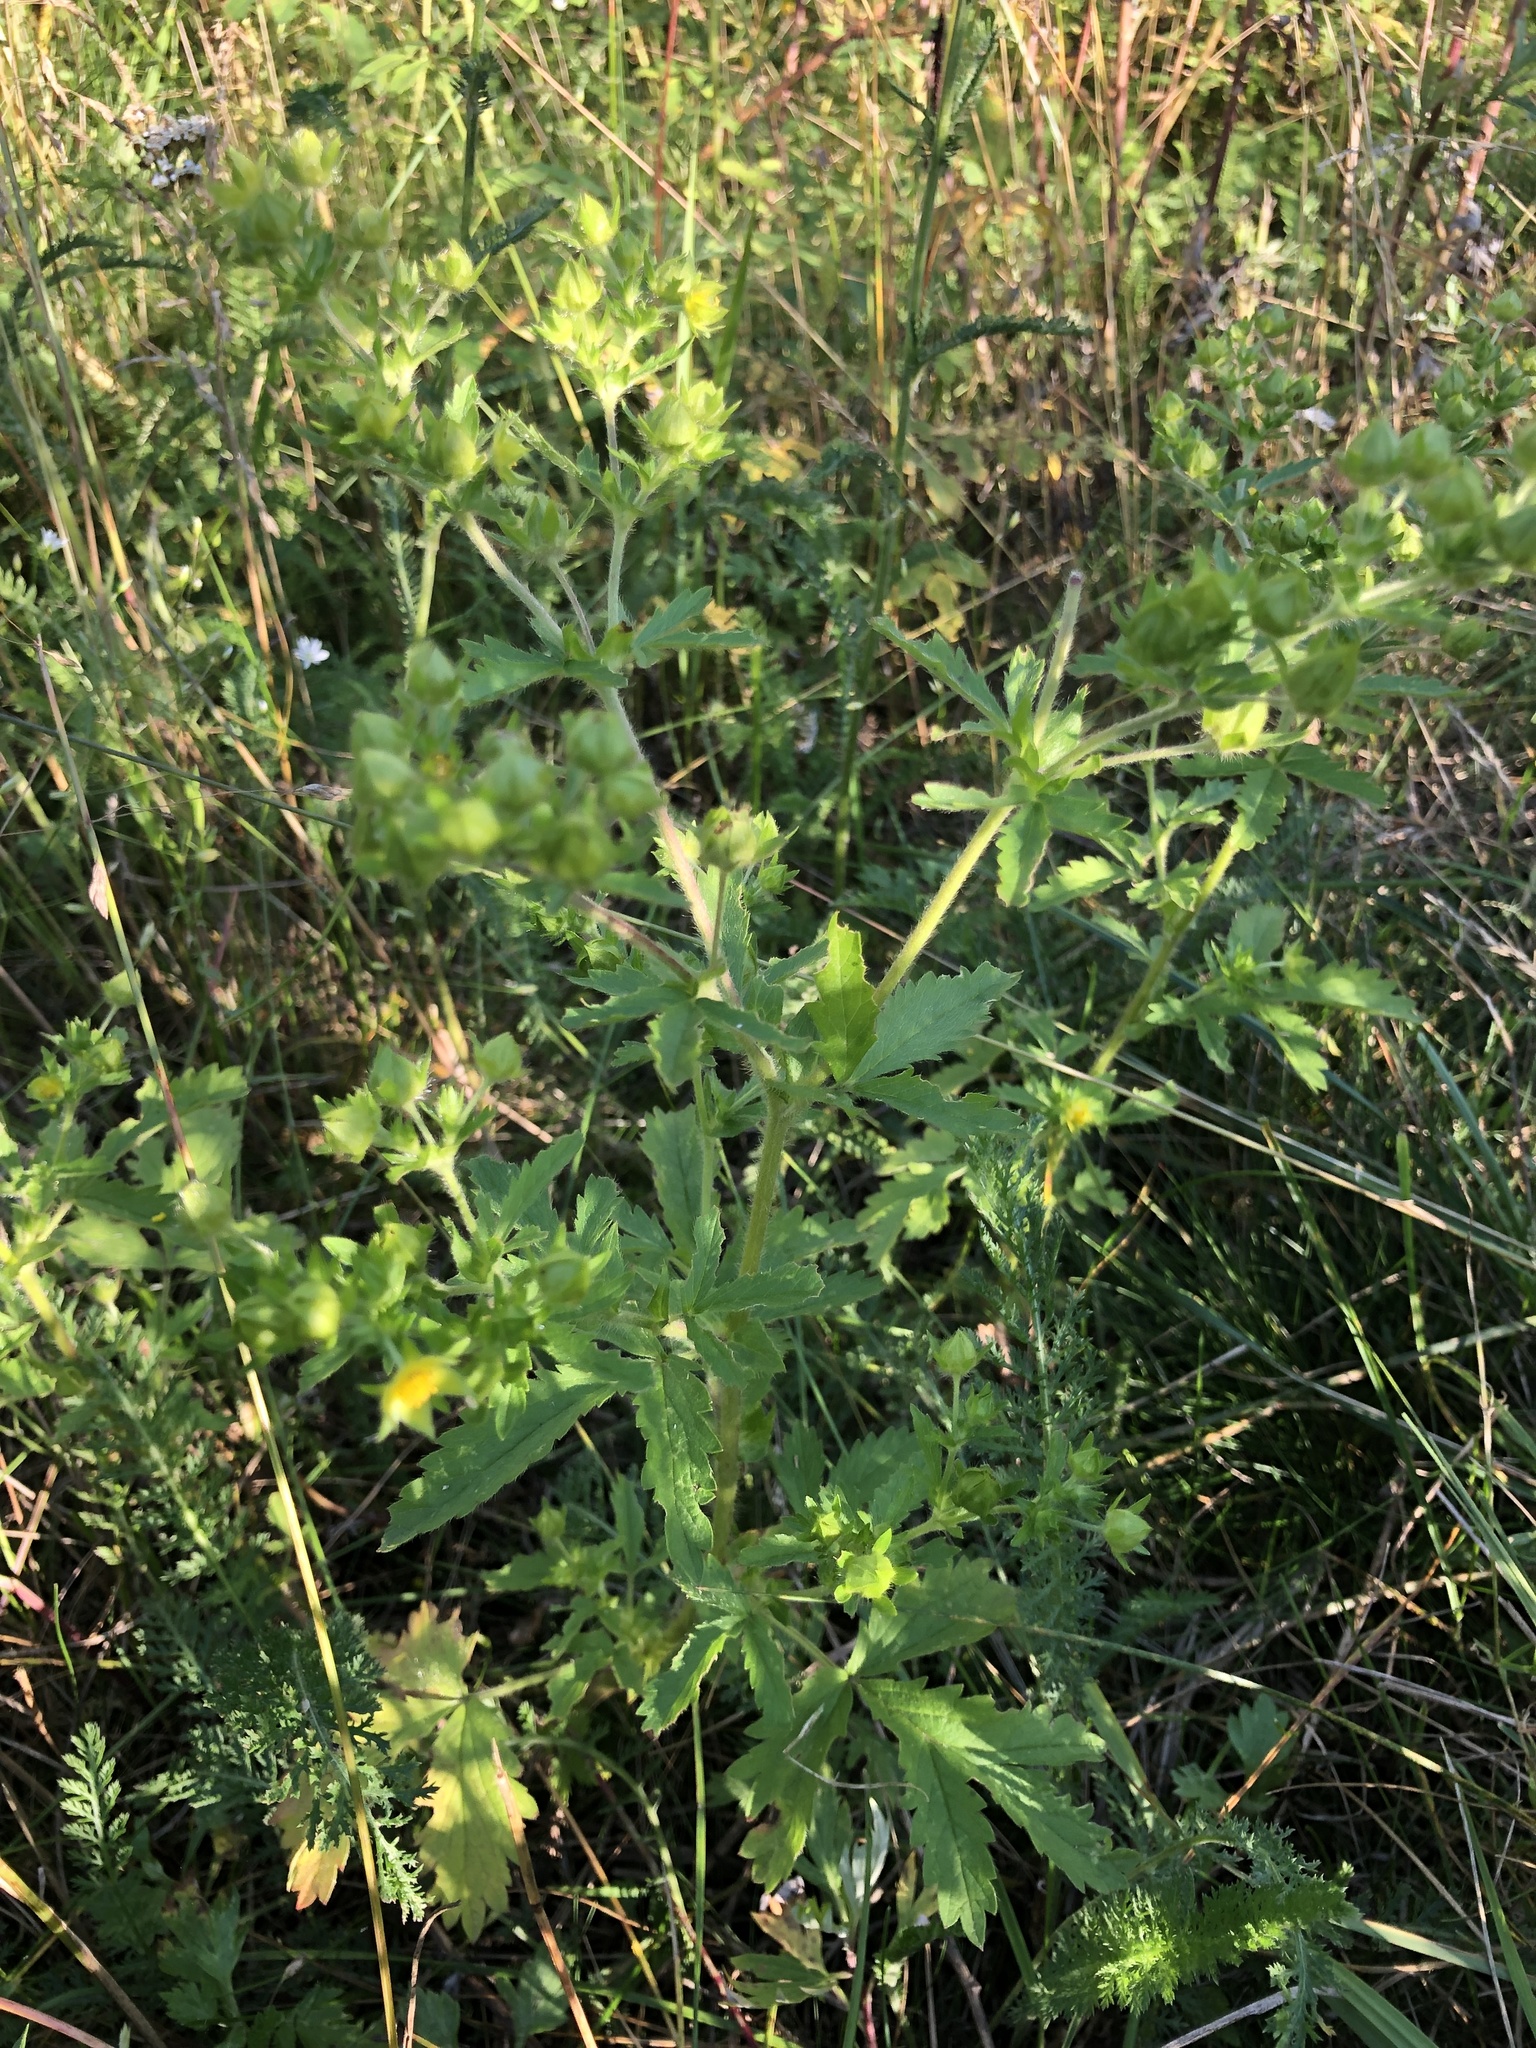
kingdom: Plantae
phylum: Tracheophyta
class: Magnoliopsida
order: Rosales
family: Rosaceae
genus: Potentilla
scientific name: Potentilla norvegica
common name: Ternate-leaved cinquefoil
